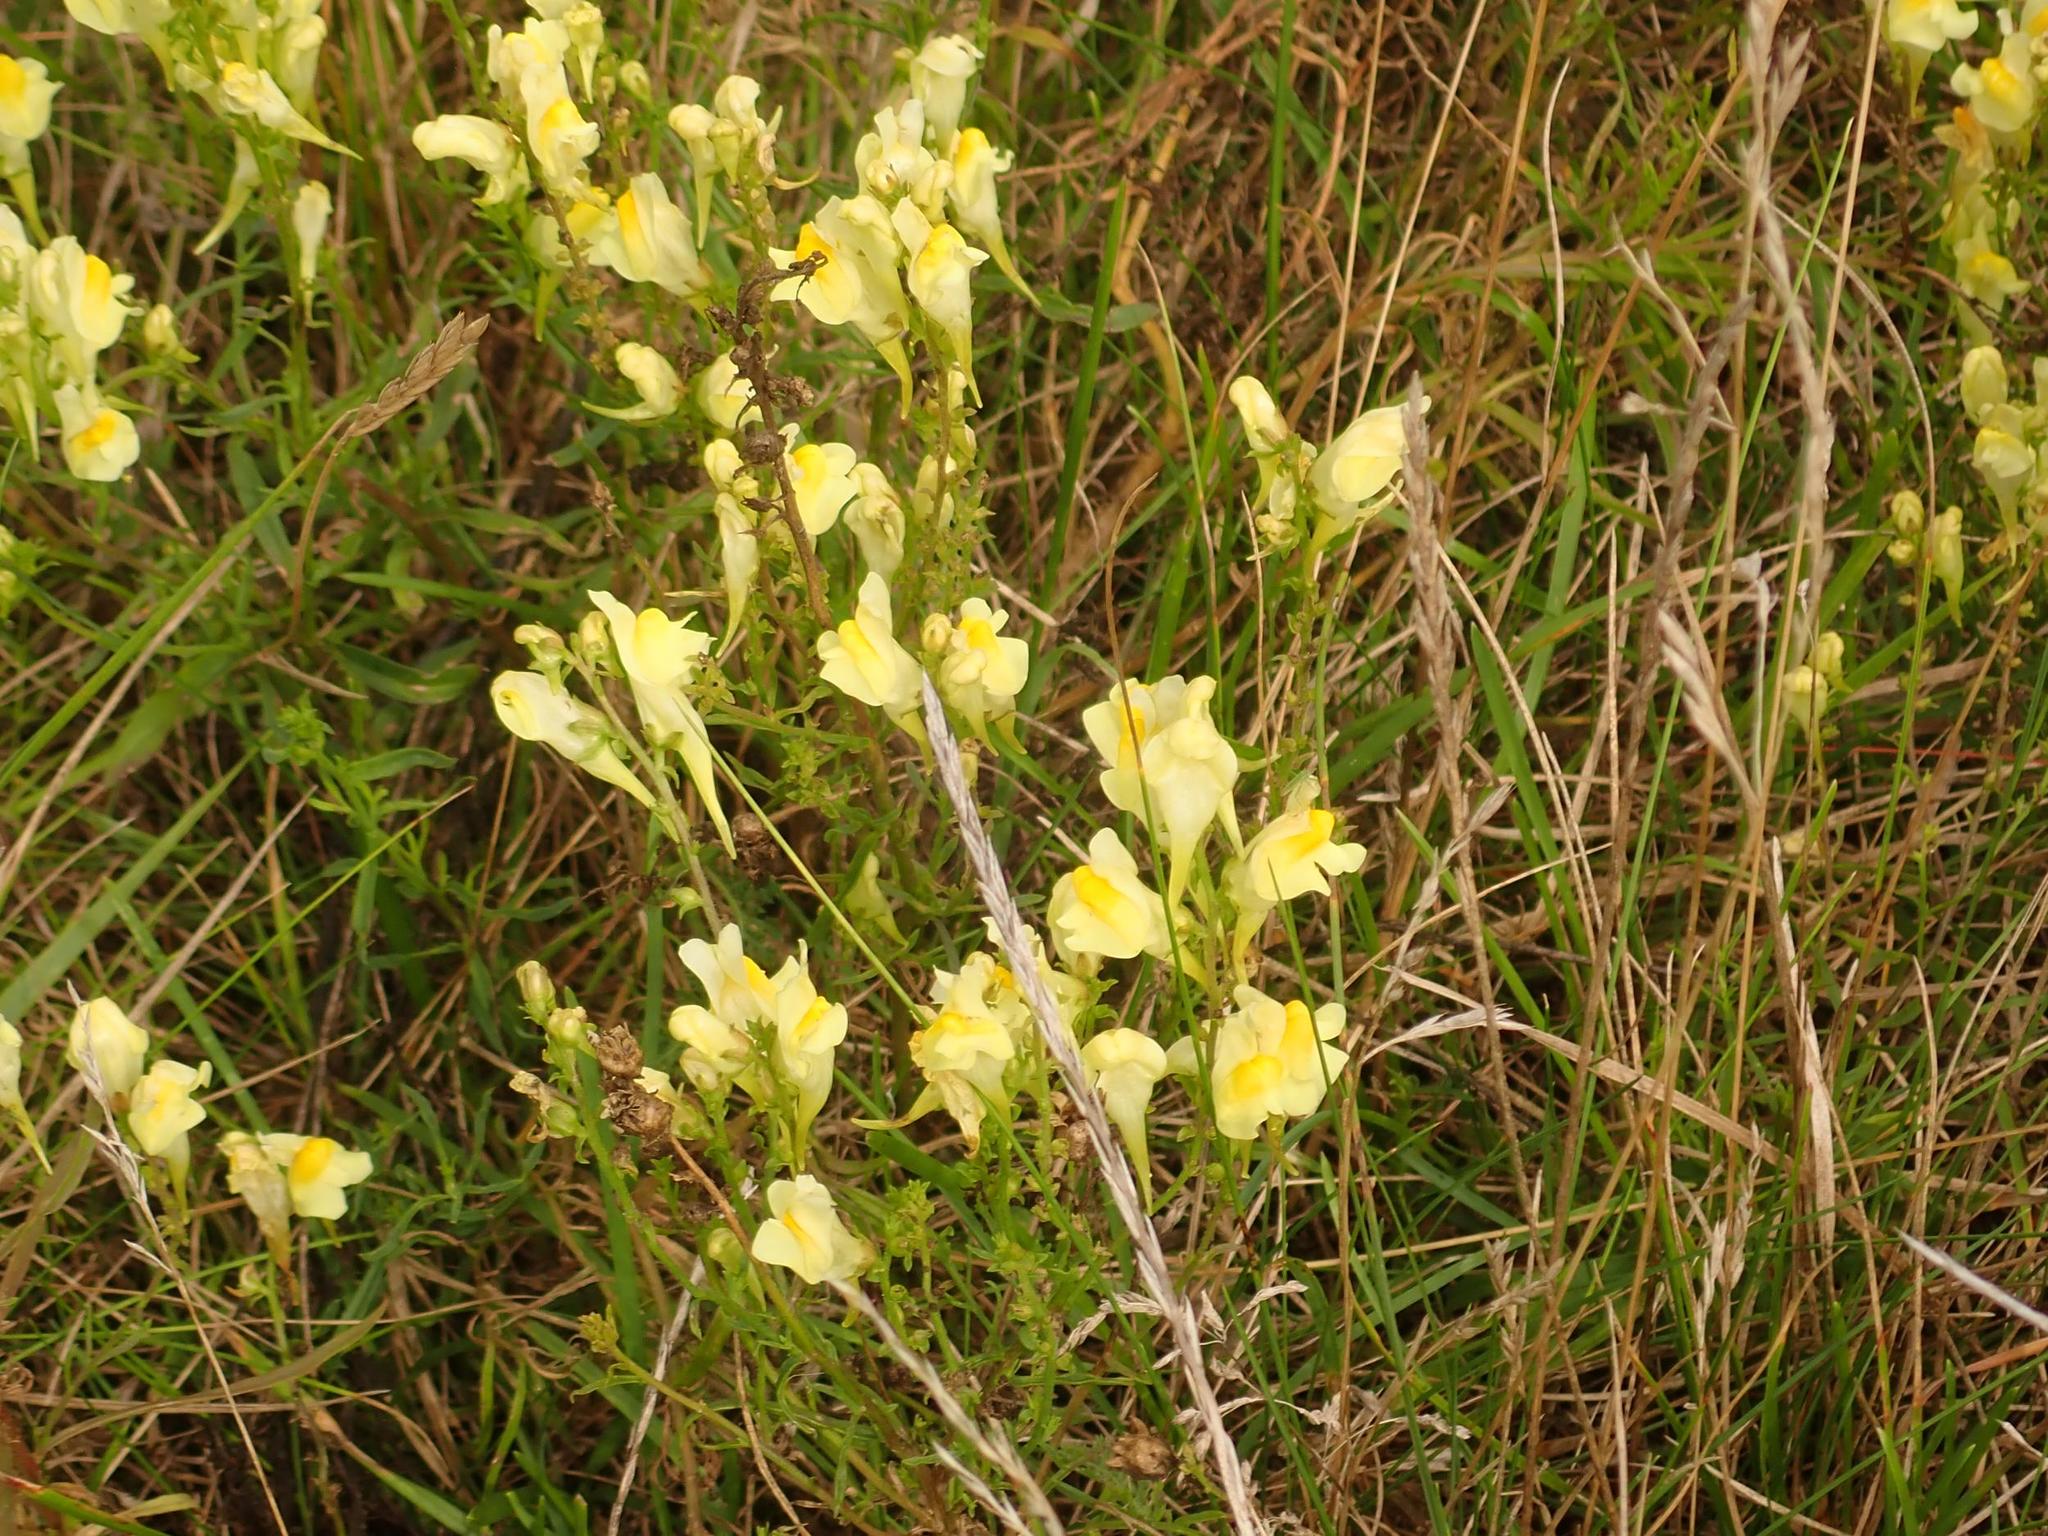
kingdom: Plantae
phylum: Tracheophyta
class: Magnoliopsida
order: Lamiales
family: Plantaginaceae
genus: Linaria
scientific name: Linaria vulgaris
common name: Butter and eggs
